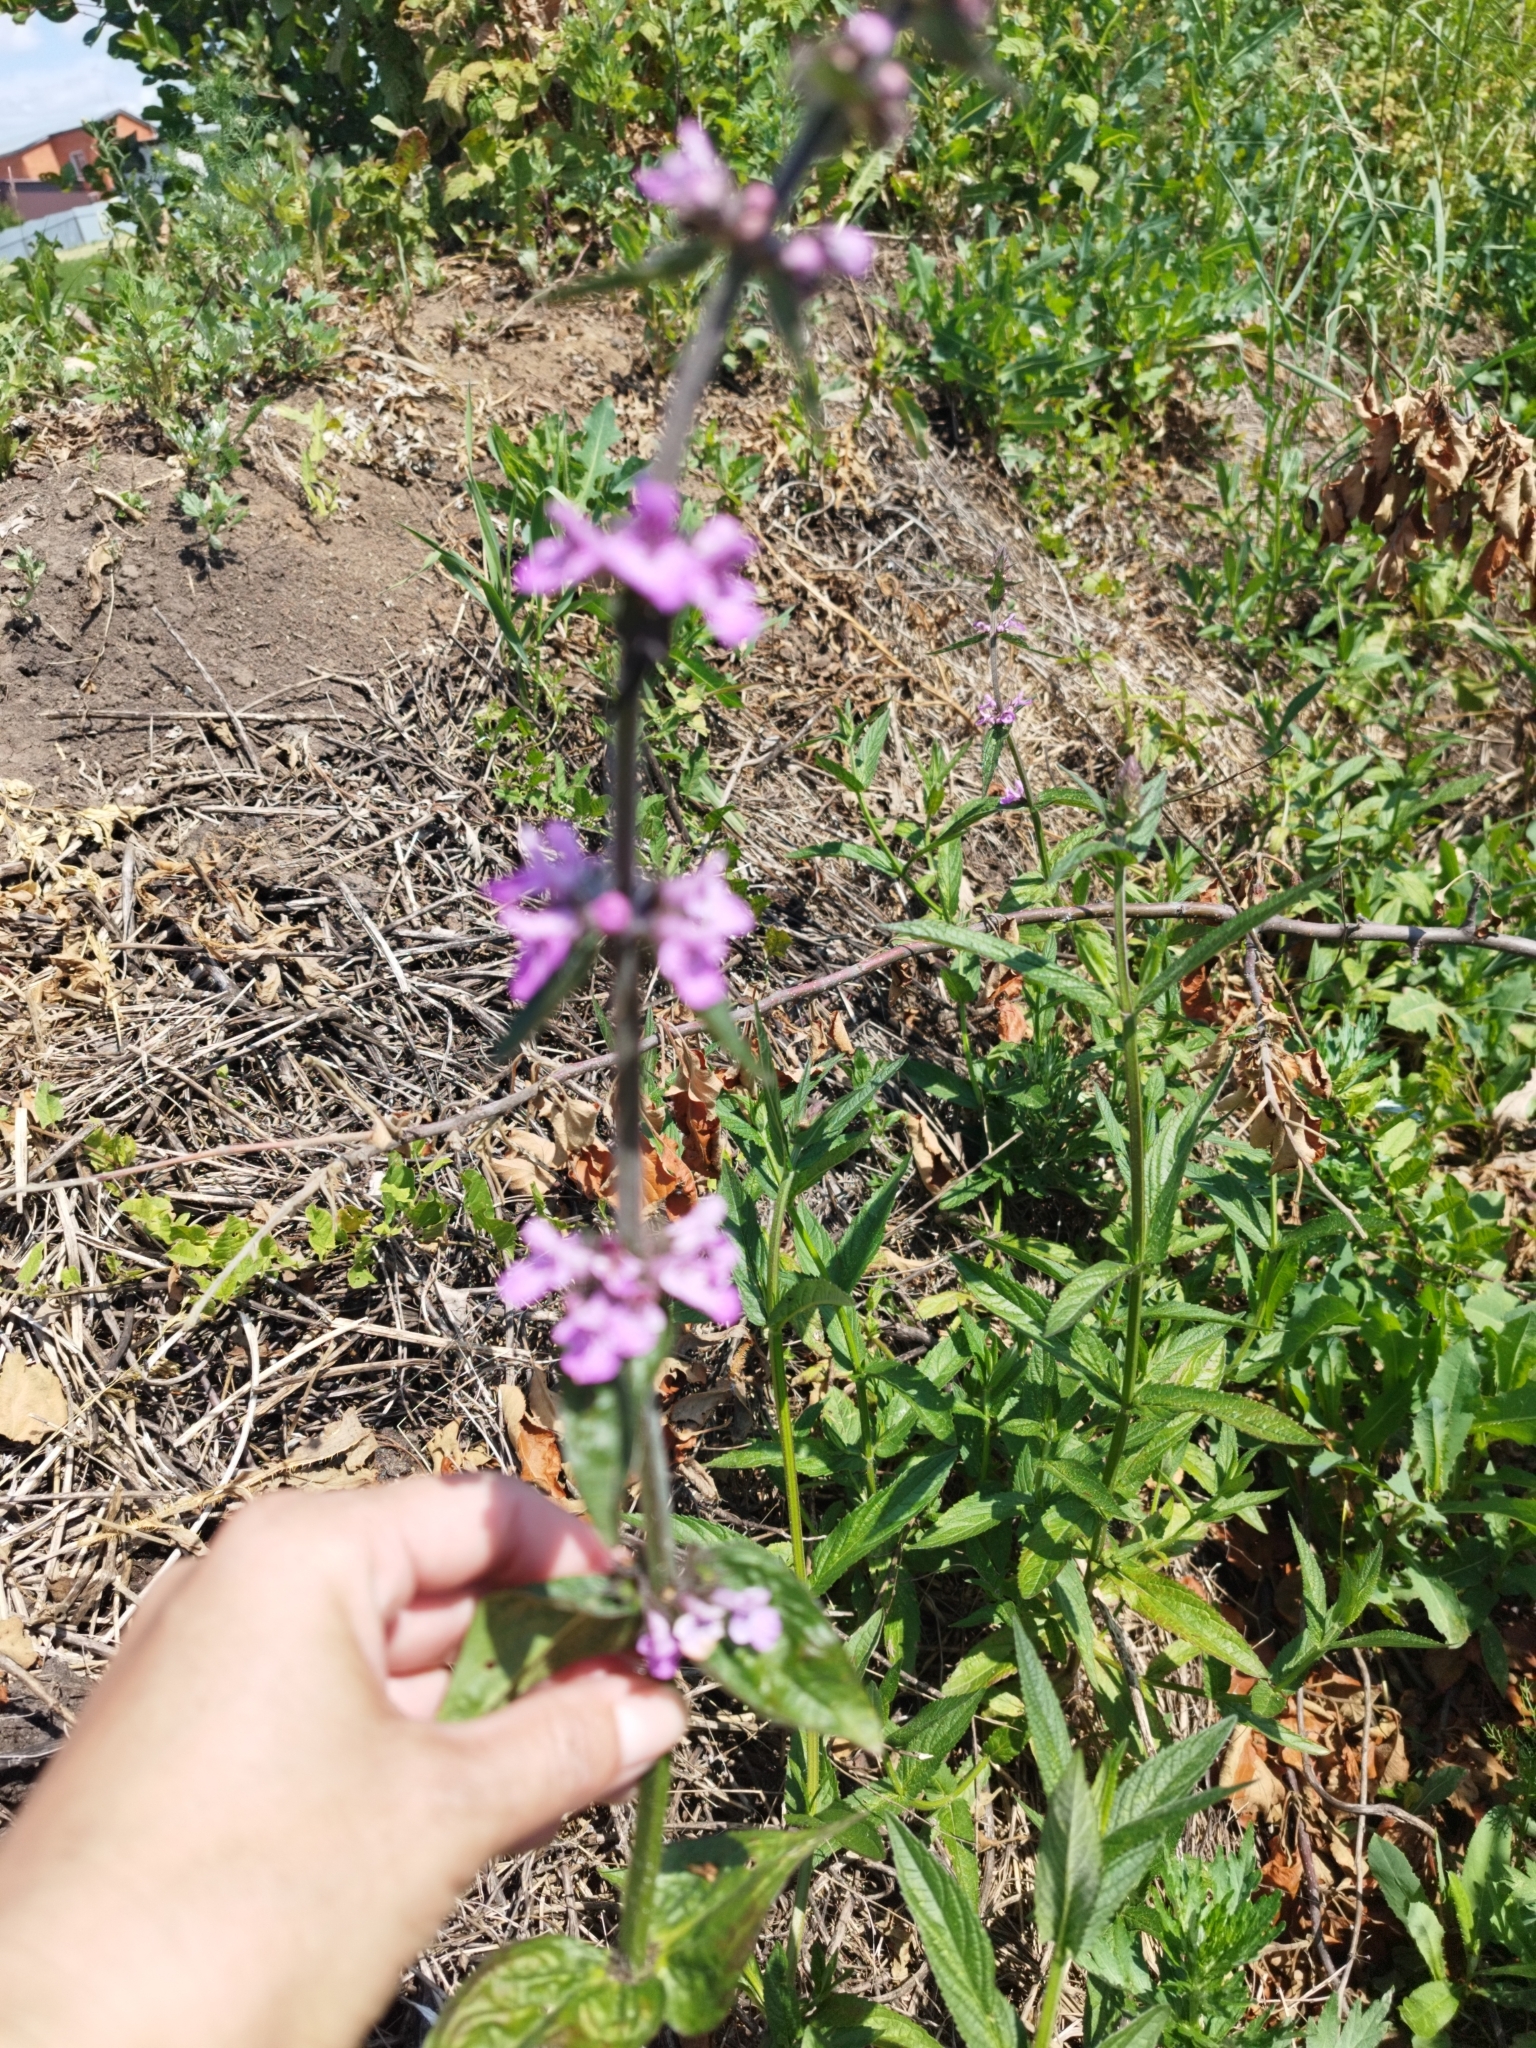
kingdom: Plantae
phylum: Tracheophyta
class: Magnoliopsida
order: Lamiales
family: Lamiaceae
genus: Stachys
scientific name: Stachys palustris
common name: Marsh woundwort
